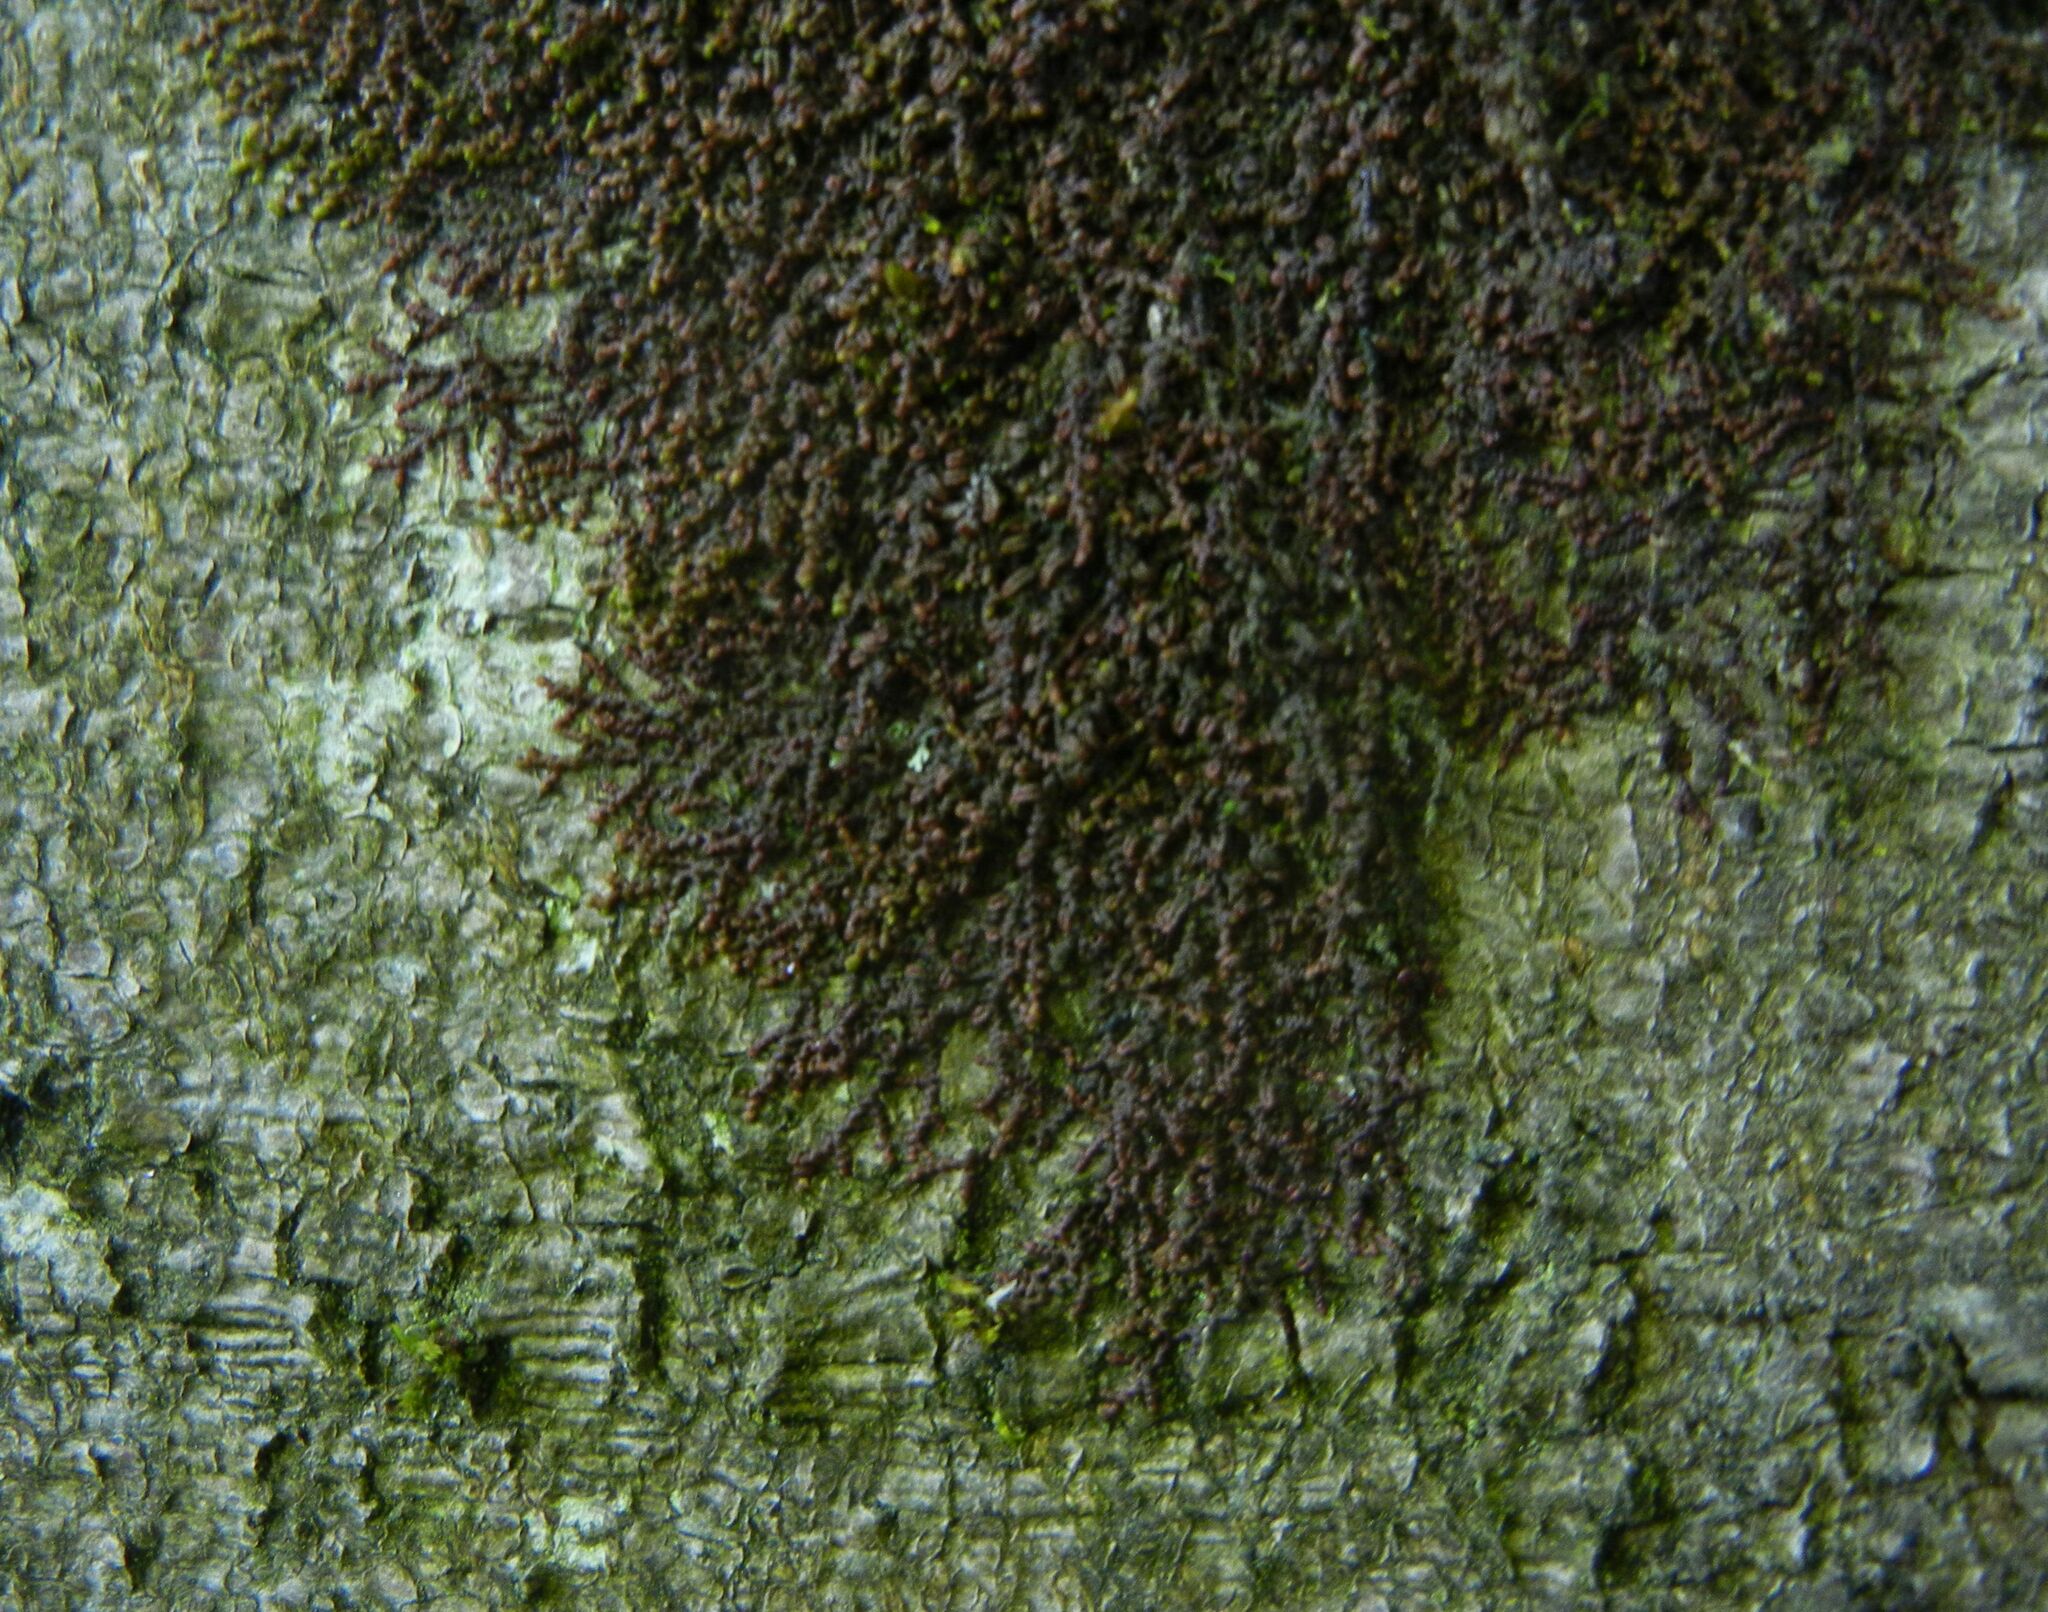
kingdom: Plantae
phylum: Marchantiophyta
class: Jungermanniopsida
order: Porellales
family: Frullaniaceae
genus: Frullania
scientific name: Frullania dilatata
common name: Dilated scalewort
